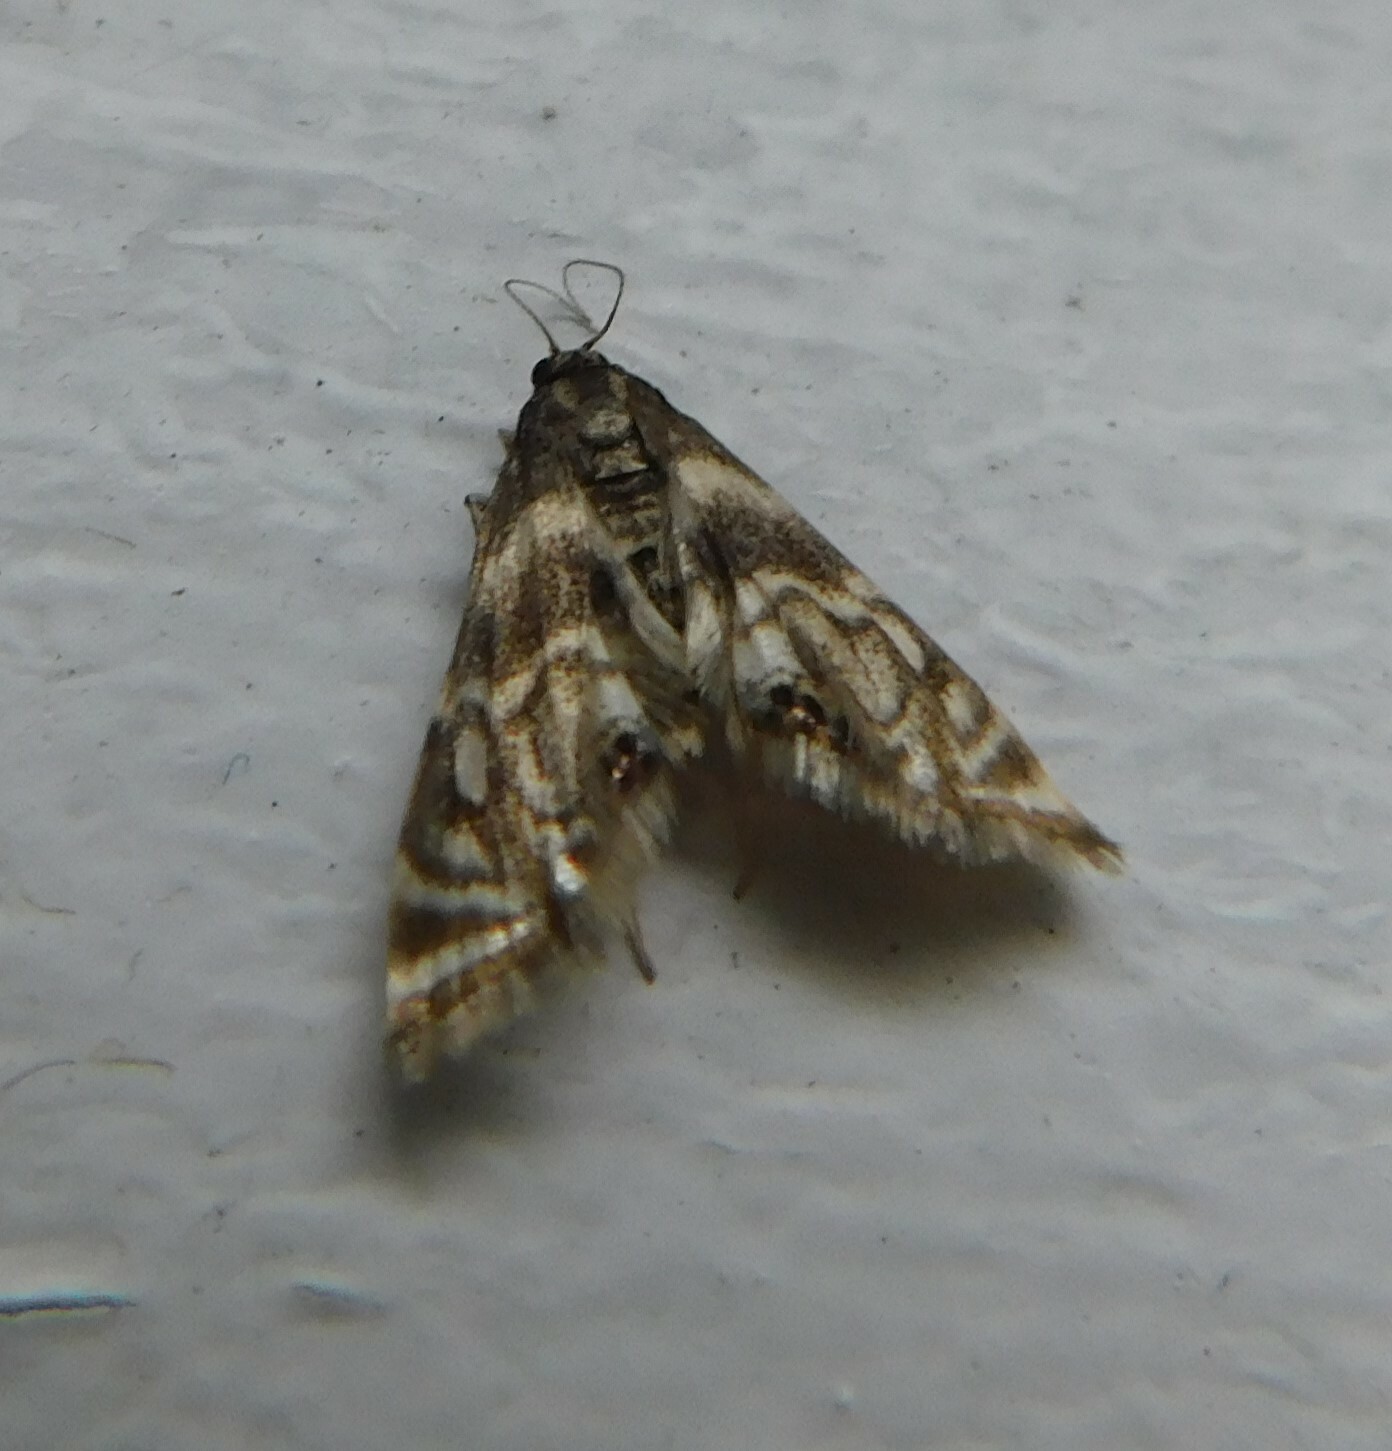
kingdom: Animalia
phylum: Arthropoda
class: Insecta
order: Lepidoptera
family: Crambidae
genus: Petrophila
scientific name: Petrophila canadensis
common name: Canadian petrophila
